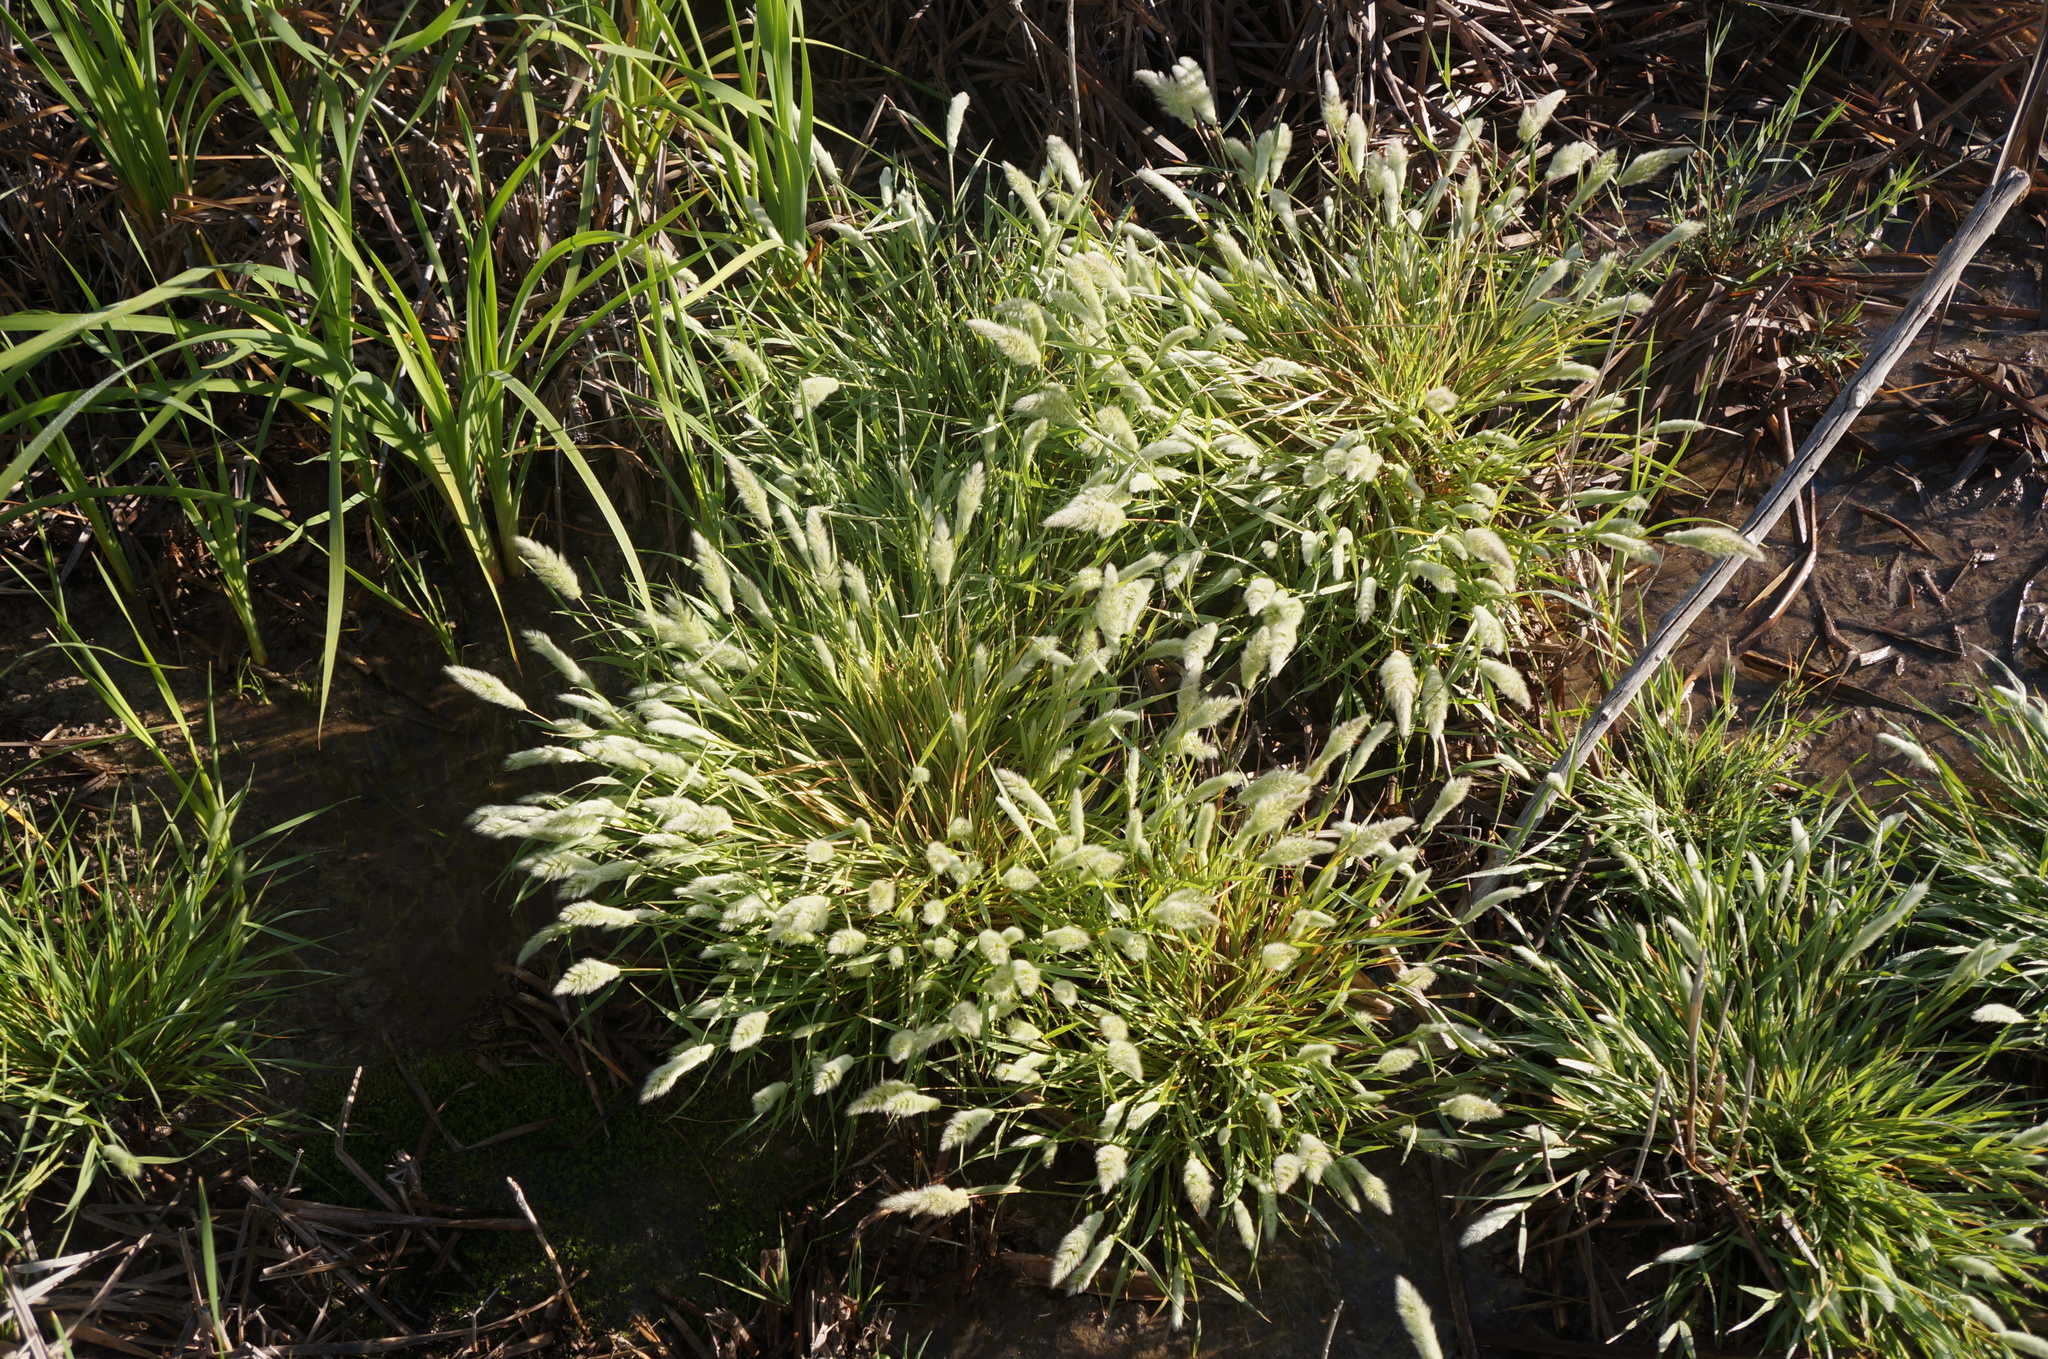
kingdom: Plantae
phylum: Tracheophyta
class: Liliopsida
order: Poales
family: Poaceae
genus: Polypogon
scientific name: Polypogon monspeliensis
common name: Annual rabbitsfoot grass
